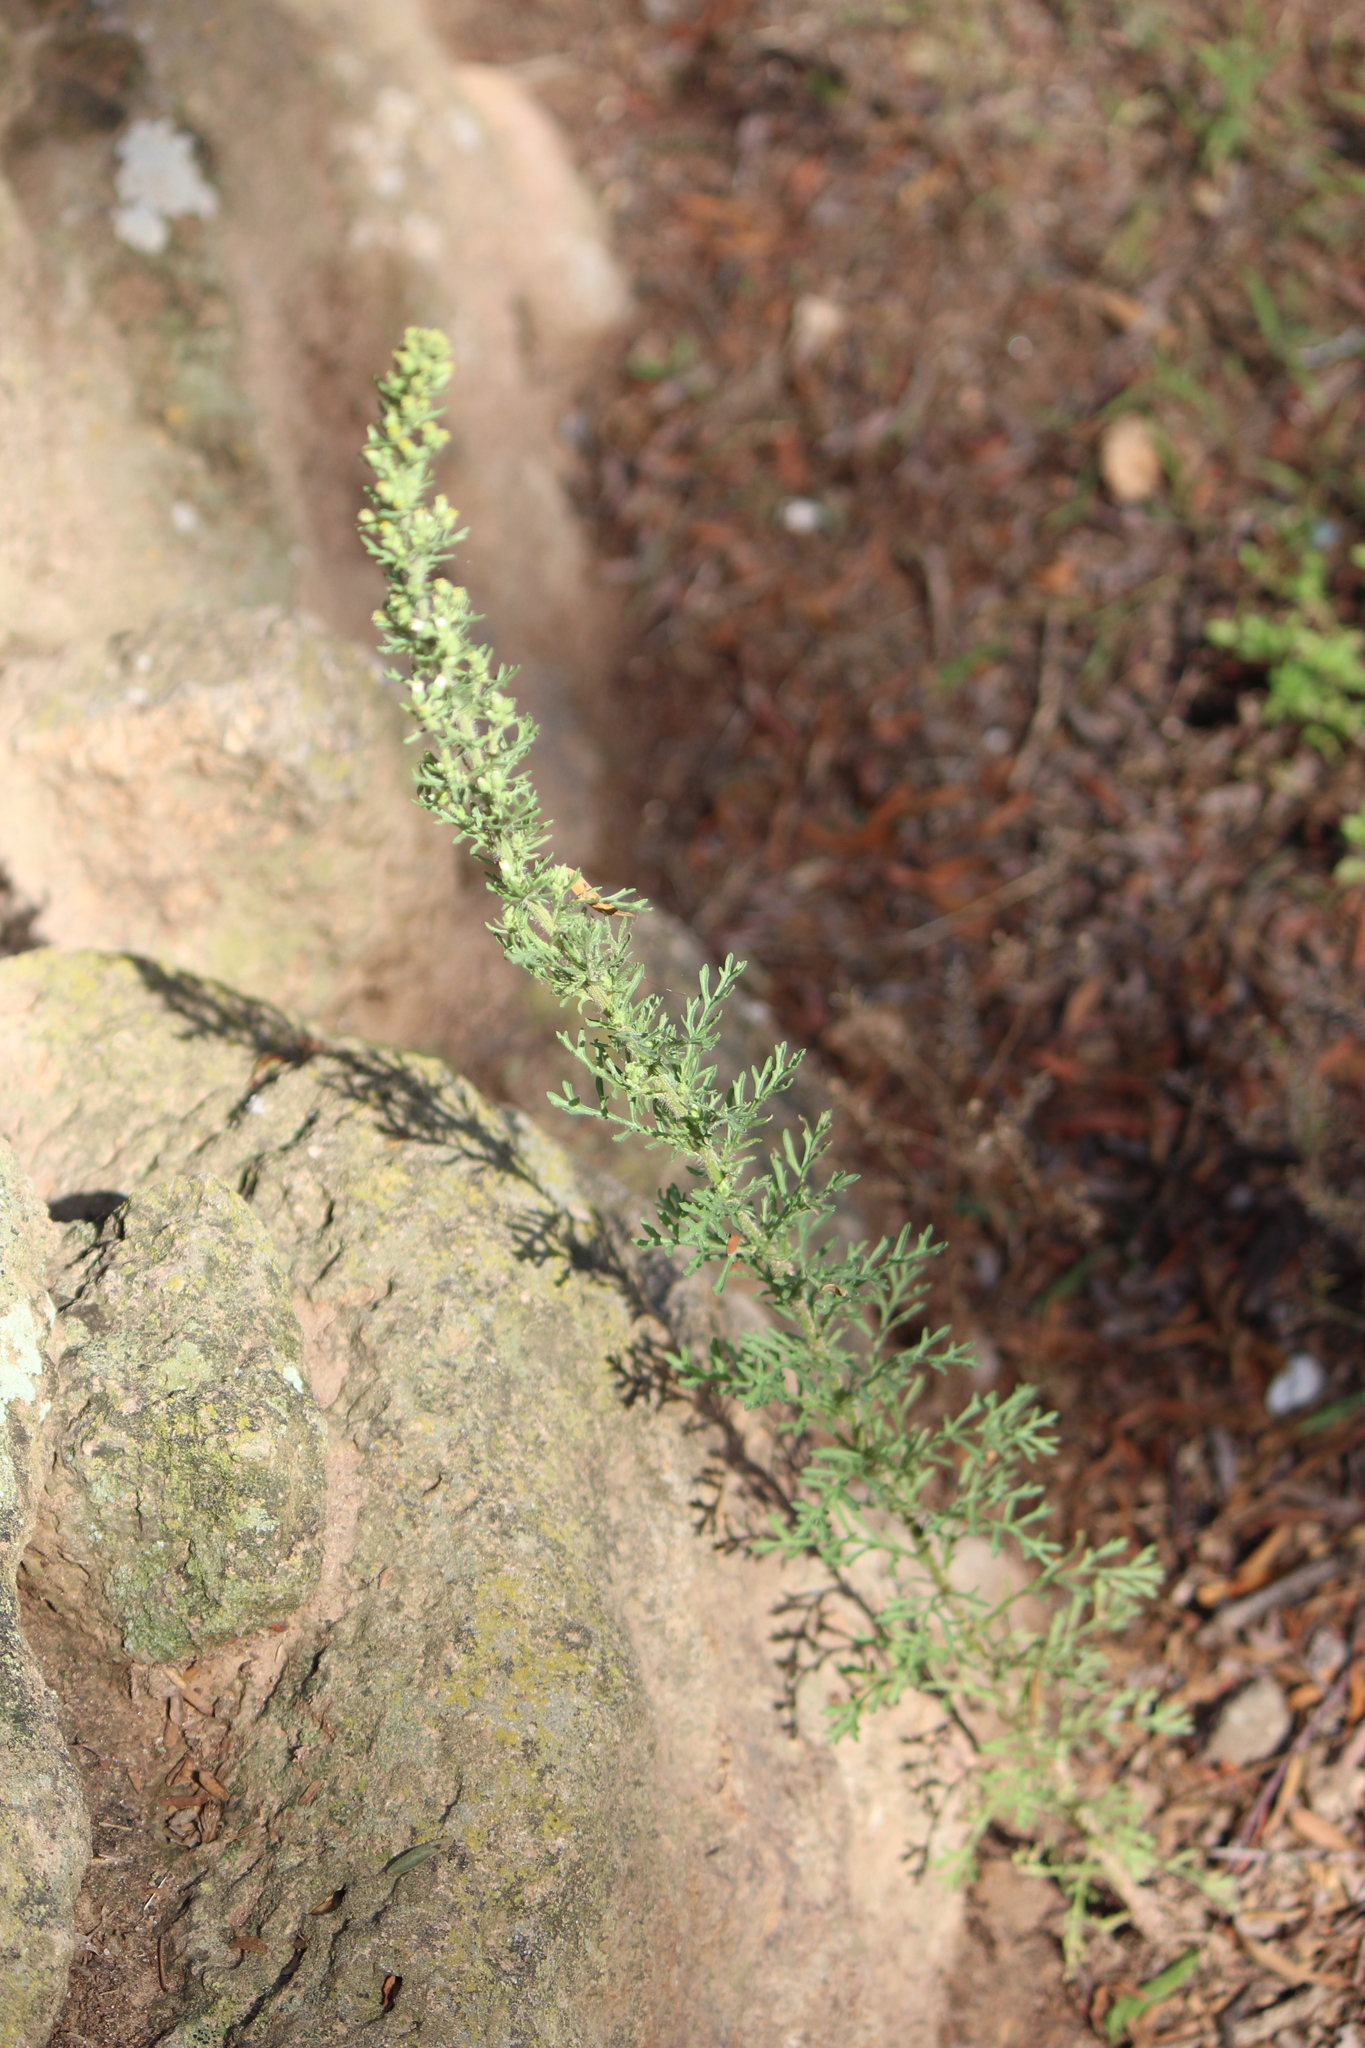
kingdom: Plantae
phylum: Tracheophyta
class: Magnoliopsida
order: Asterales
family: Asteraceae
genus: Laennecia
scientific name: Laennecia sophiifolia
